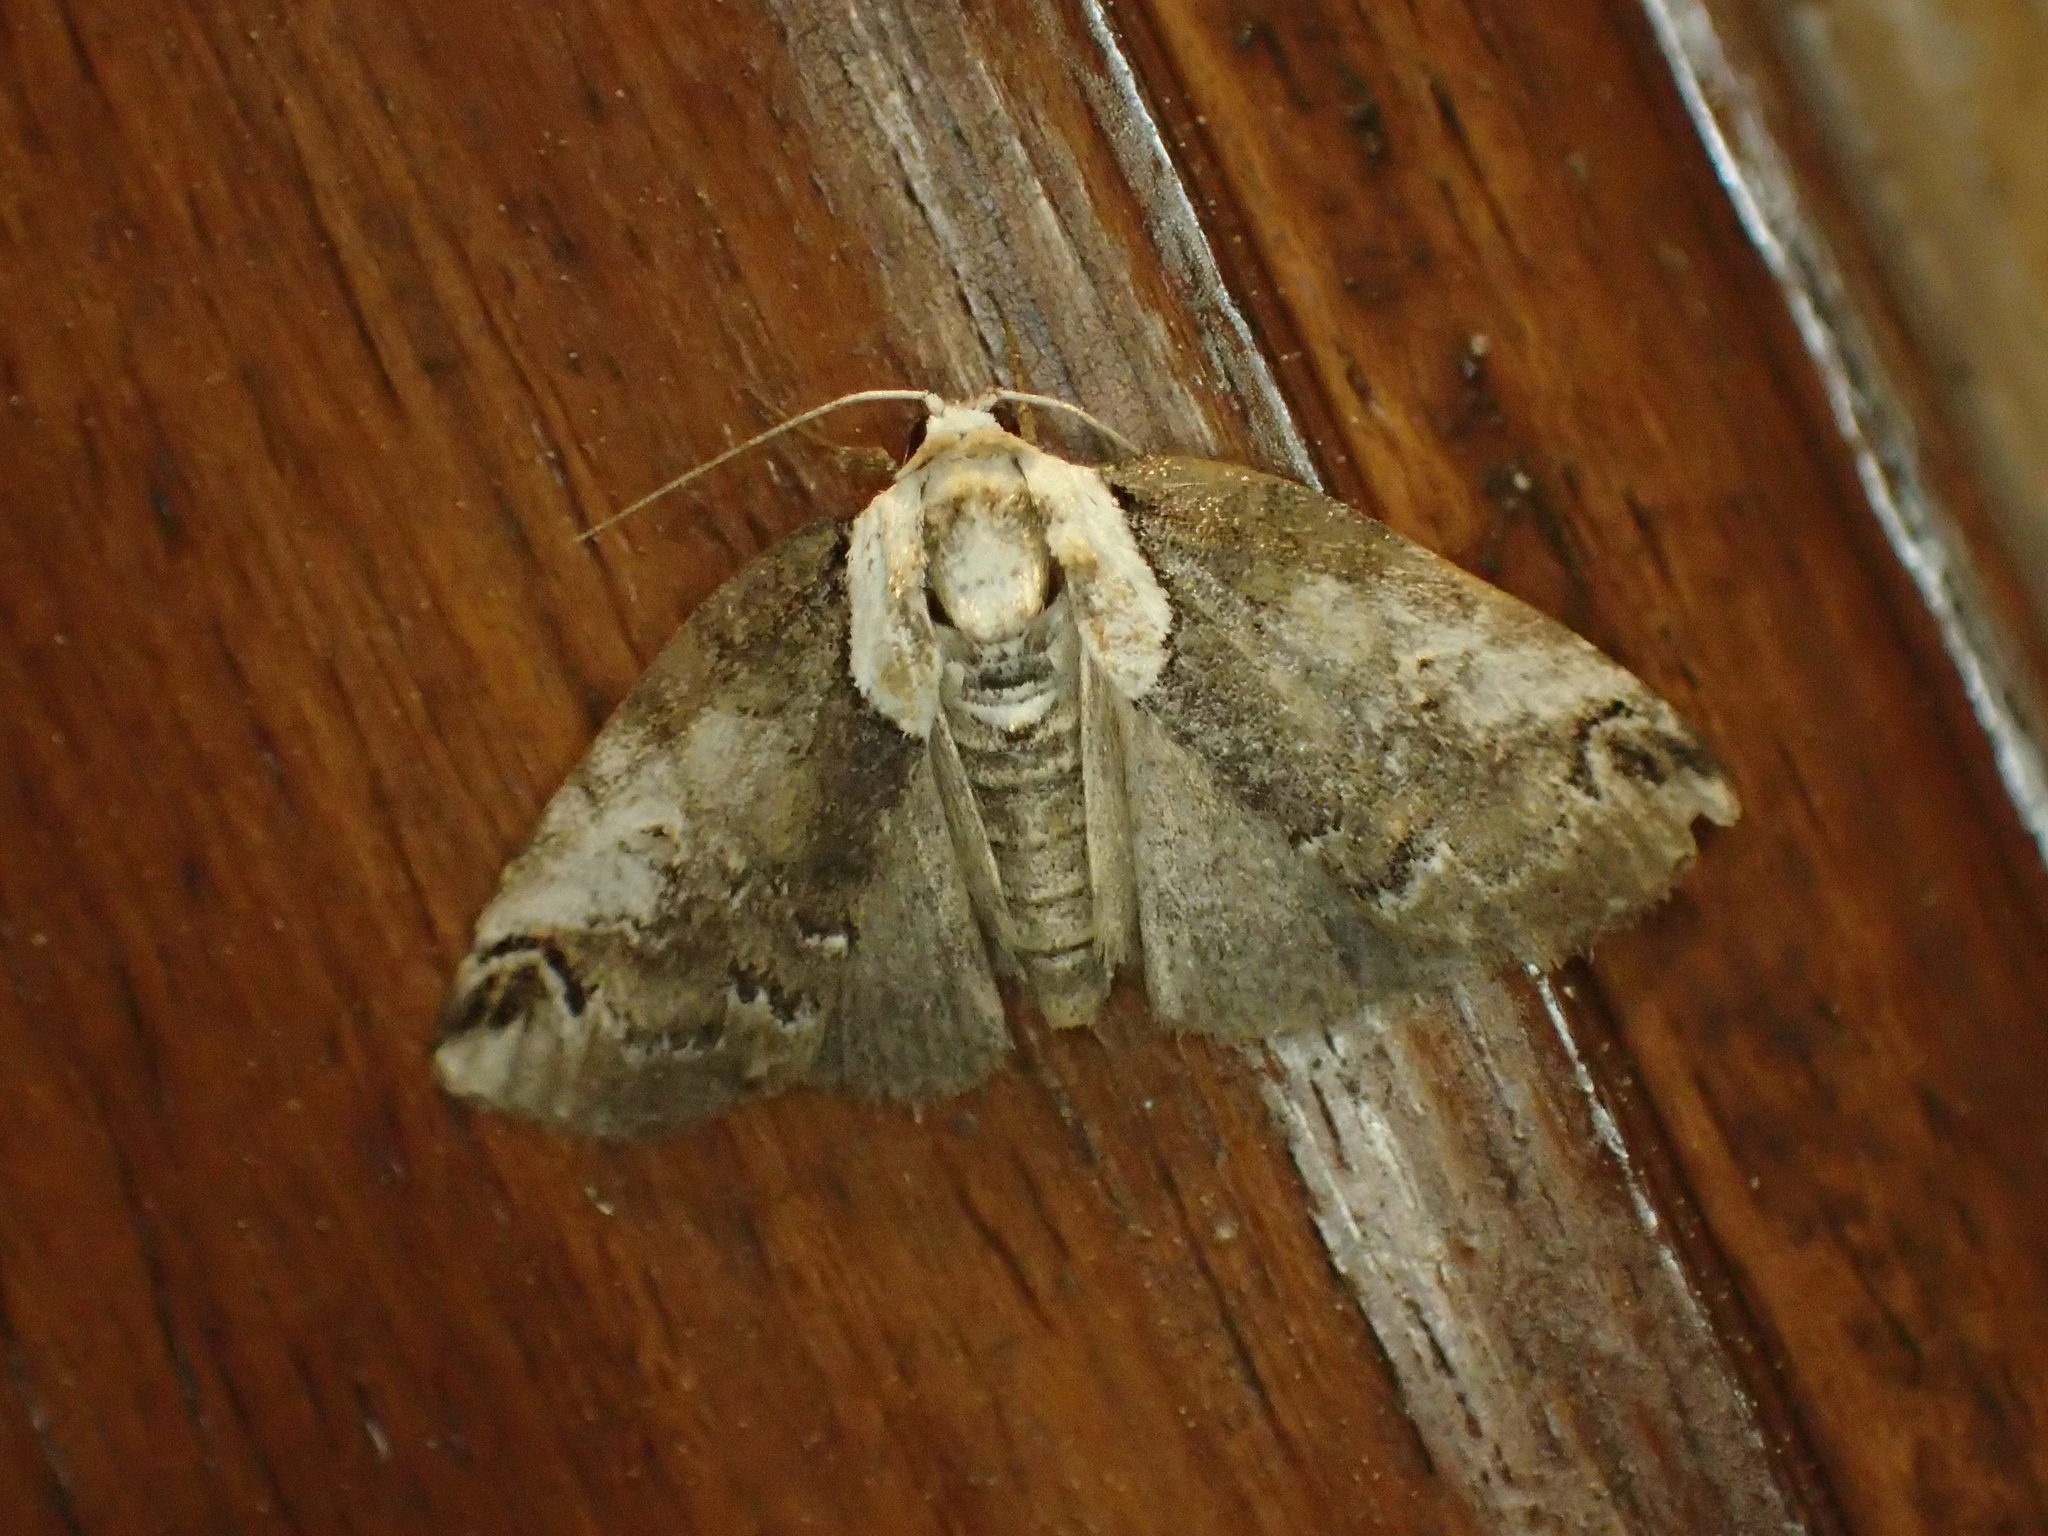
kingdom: Animalia
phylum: Arthropoda
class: Insecta
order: Lepidoptera
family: Nolidae
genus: Baileya
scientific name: Baileya ophthalmica
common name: Eyed baileya moth
